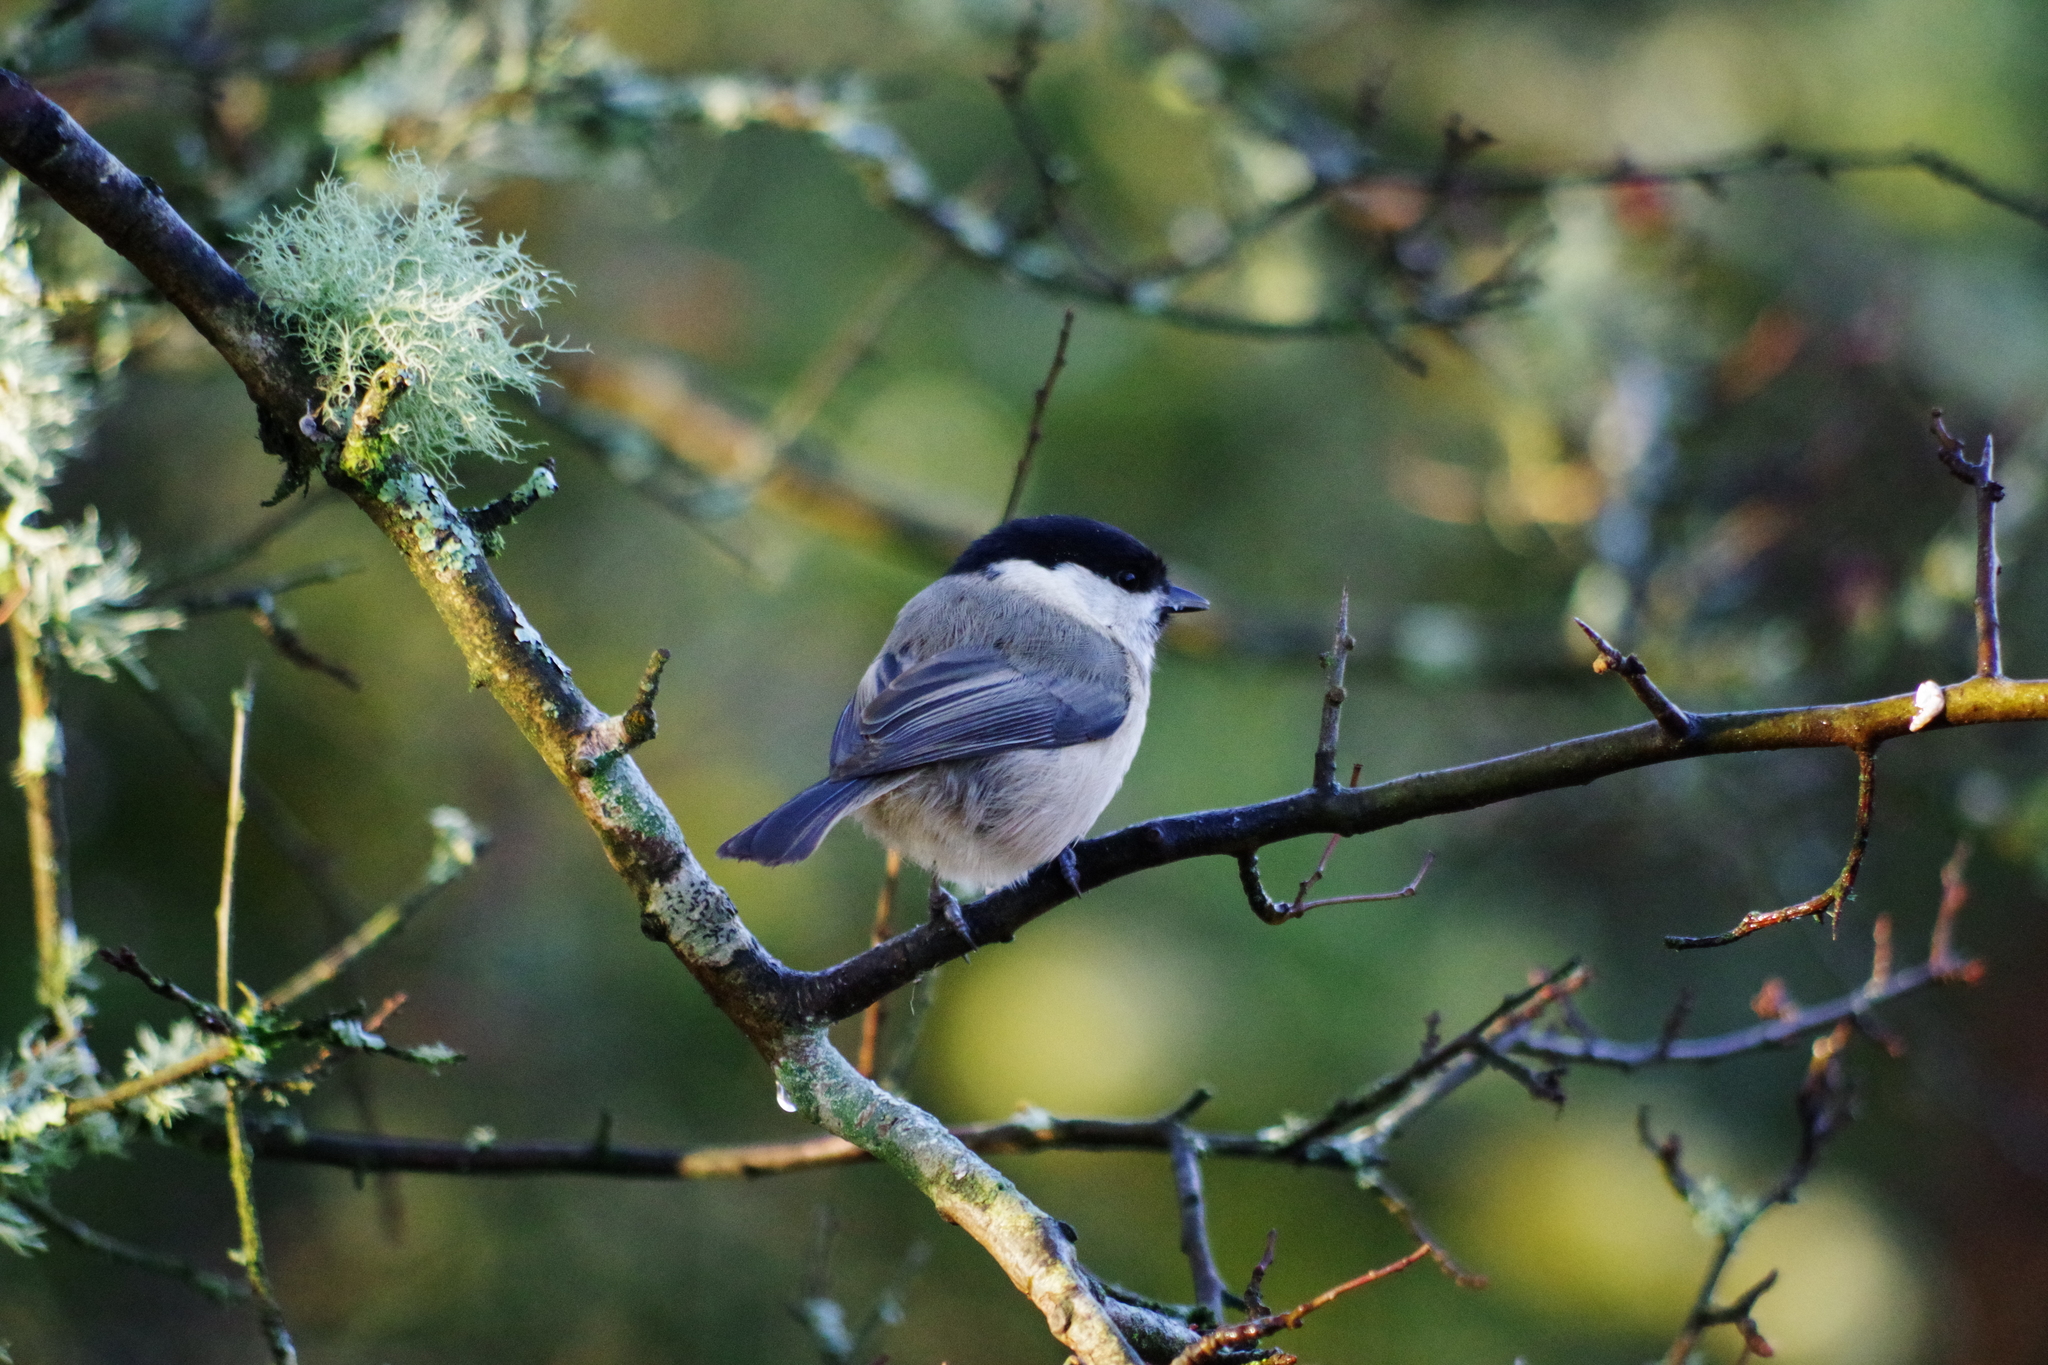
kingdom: Animalia
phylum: Chordata
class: Aves
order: Passeriformes
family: Paridae
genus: Poecile
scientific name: Poecile montanus
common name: Willow tit
